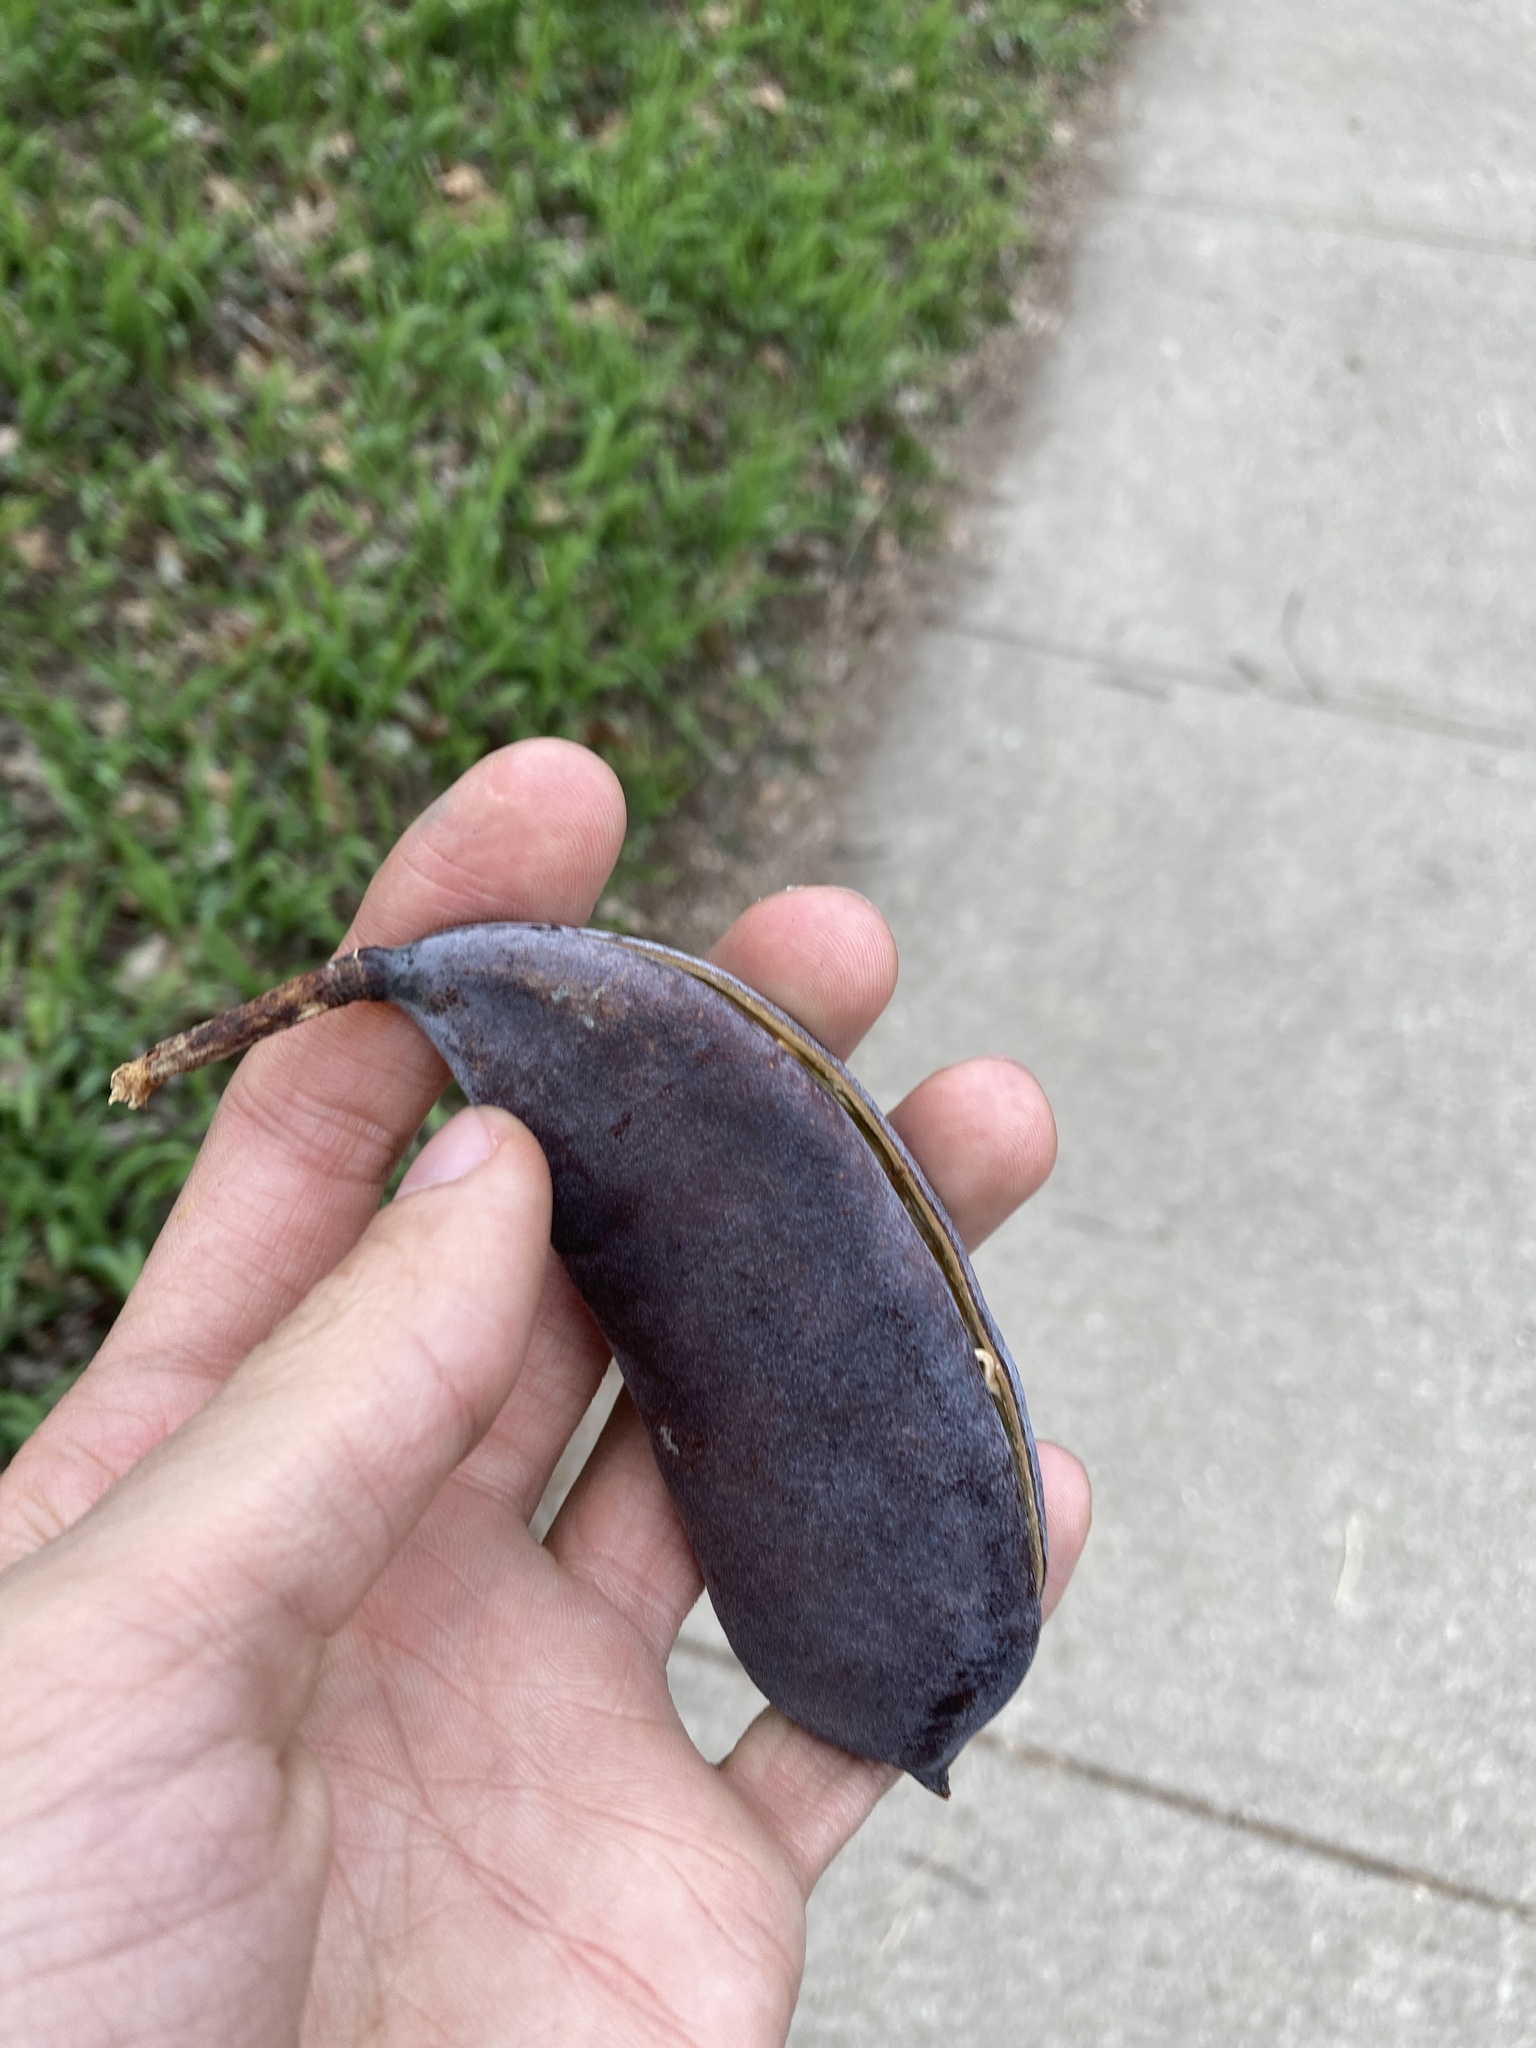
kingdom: Plantae
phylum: Tracheophyta
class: Magnoliopsida
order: Fabales
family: Fabaceae
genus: Gymnocladus
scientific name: Gymnocladus dioicus
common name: Kentucky coffee-tree
